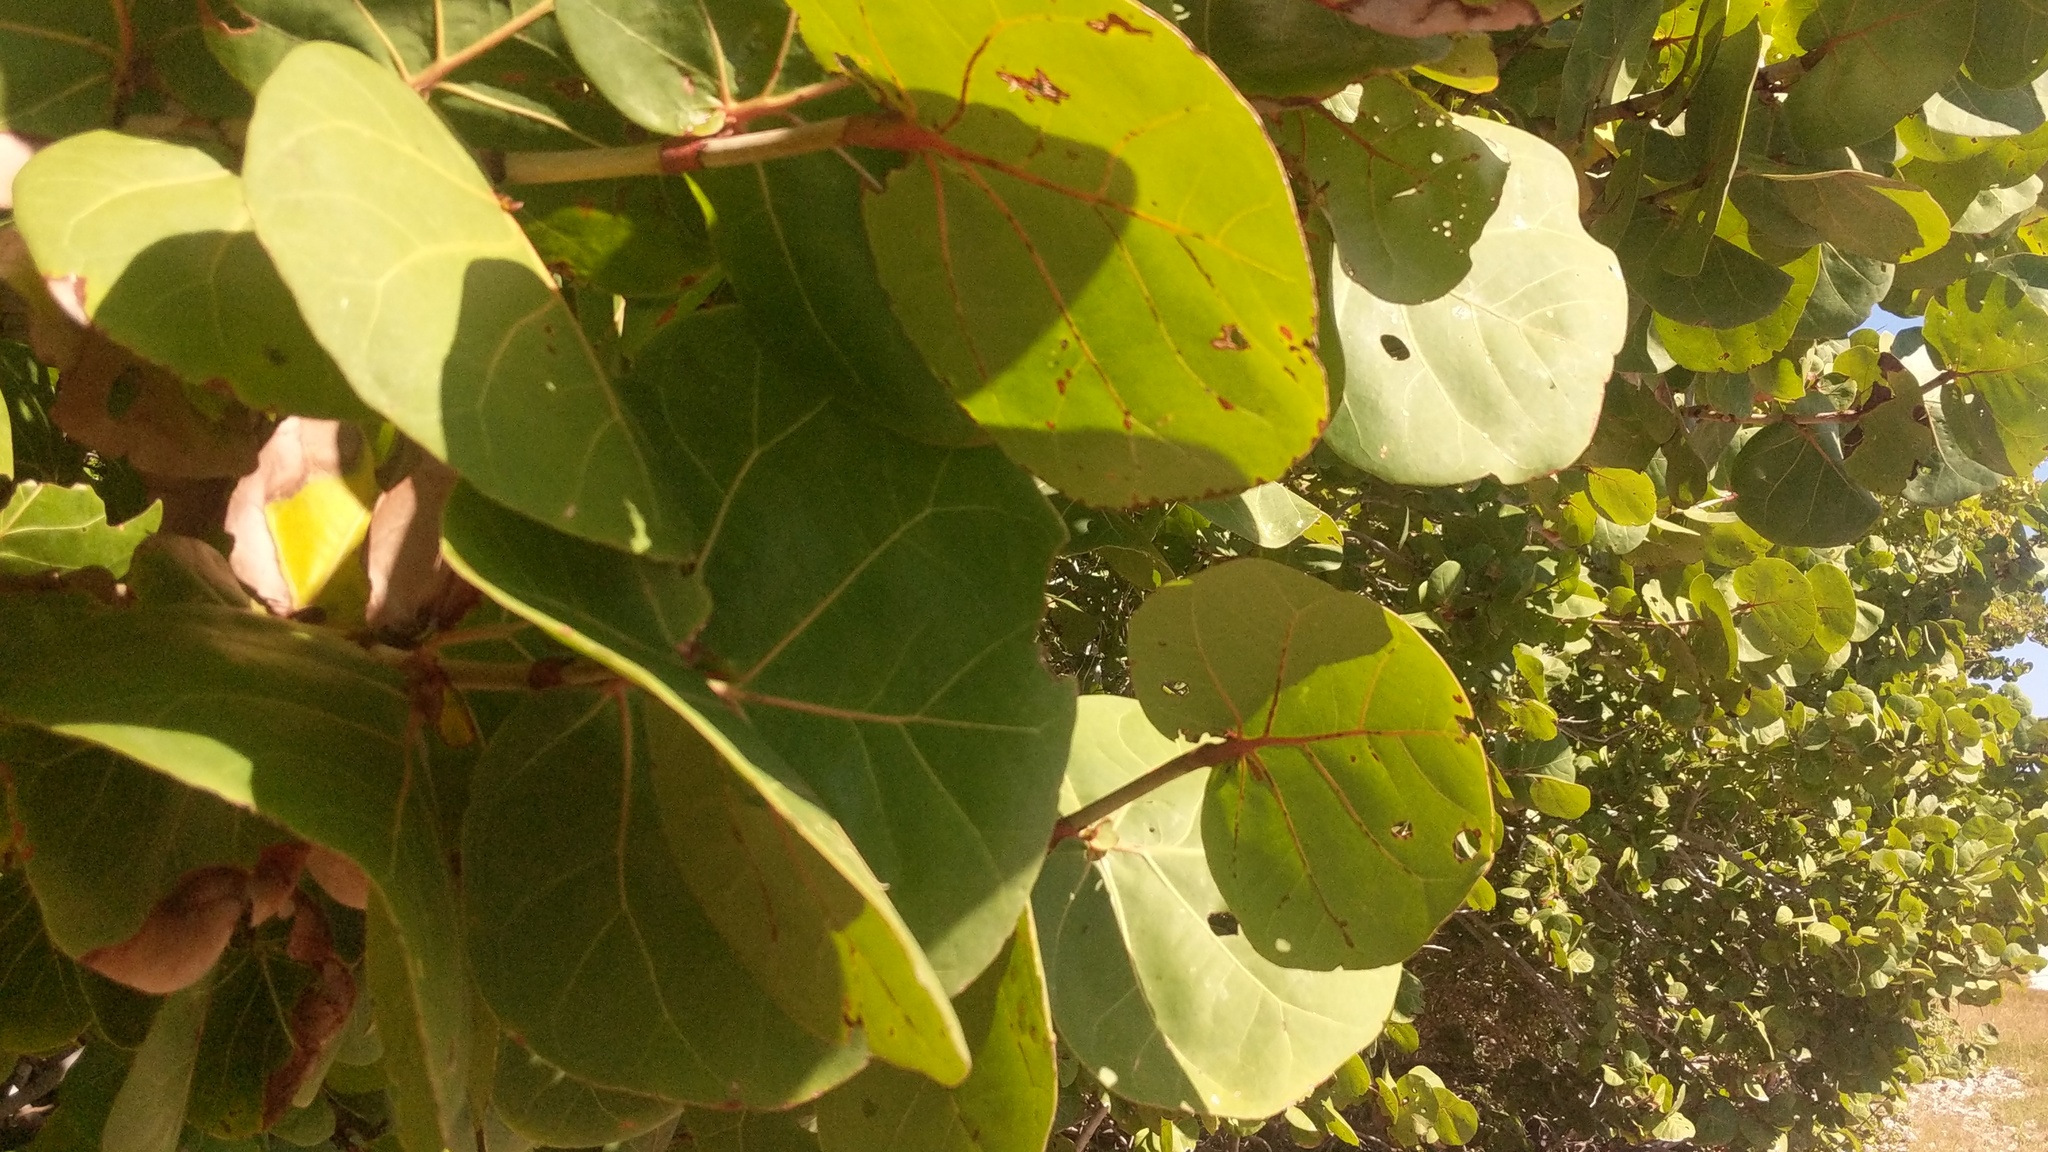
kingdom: Plantae
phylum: Tracheophyta
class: Magnoliopsida
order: Caryophyllales
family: Polygonaceae
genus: Coccoloba
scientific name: Coccoloba uvifera
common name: Seagrape
